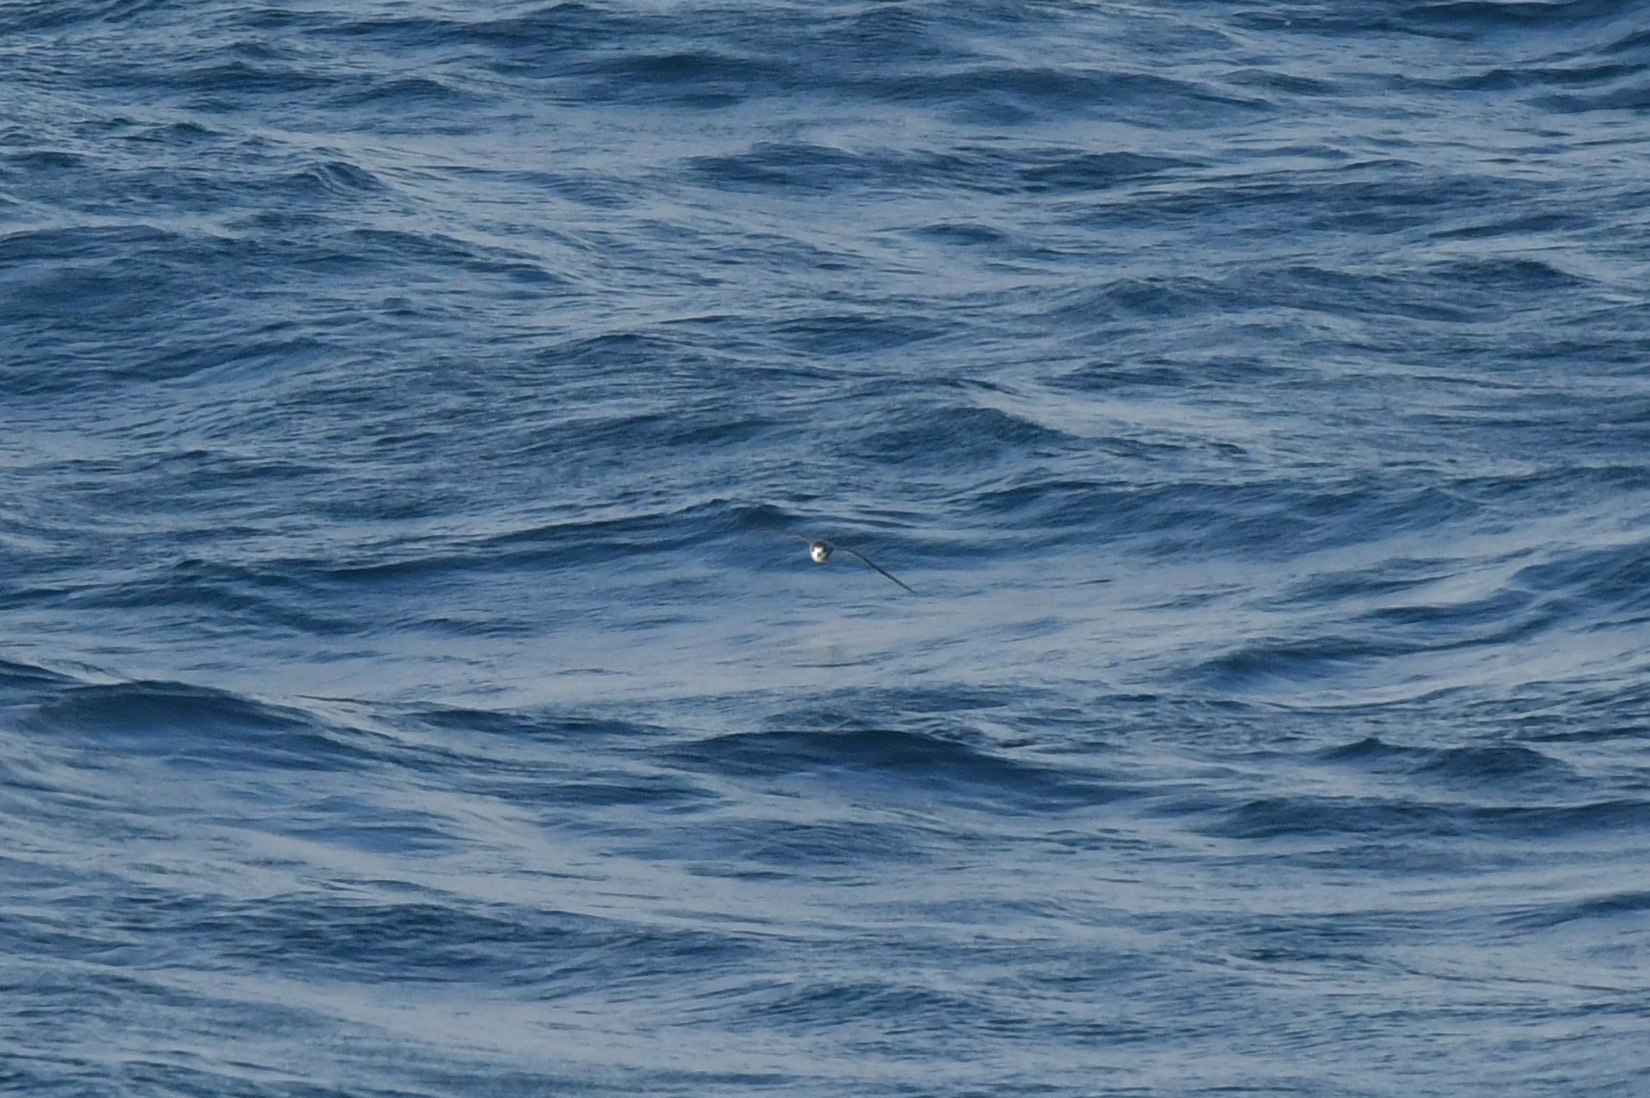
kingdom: Animalia
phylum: Chordata
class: Aves
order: Procellariiformes
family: Procellariidae
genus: Pterodroma
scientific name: Pterodroma mollis
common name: Soft-plumaged petrel
